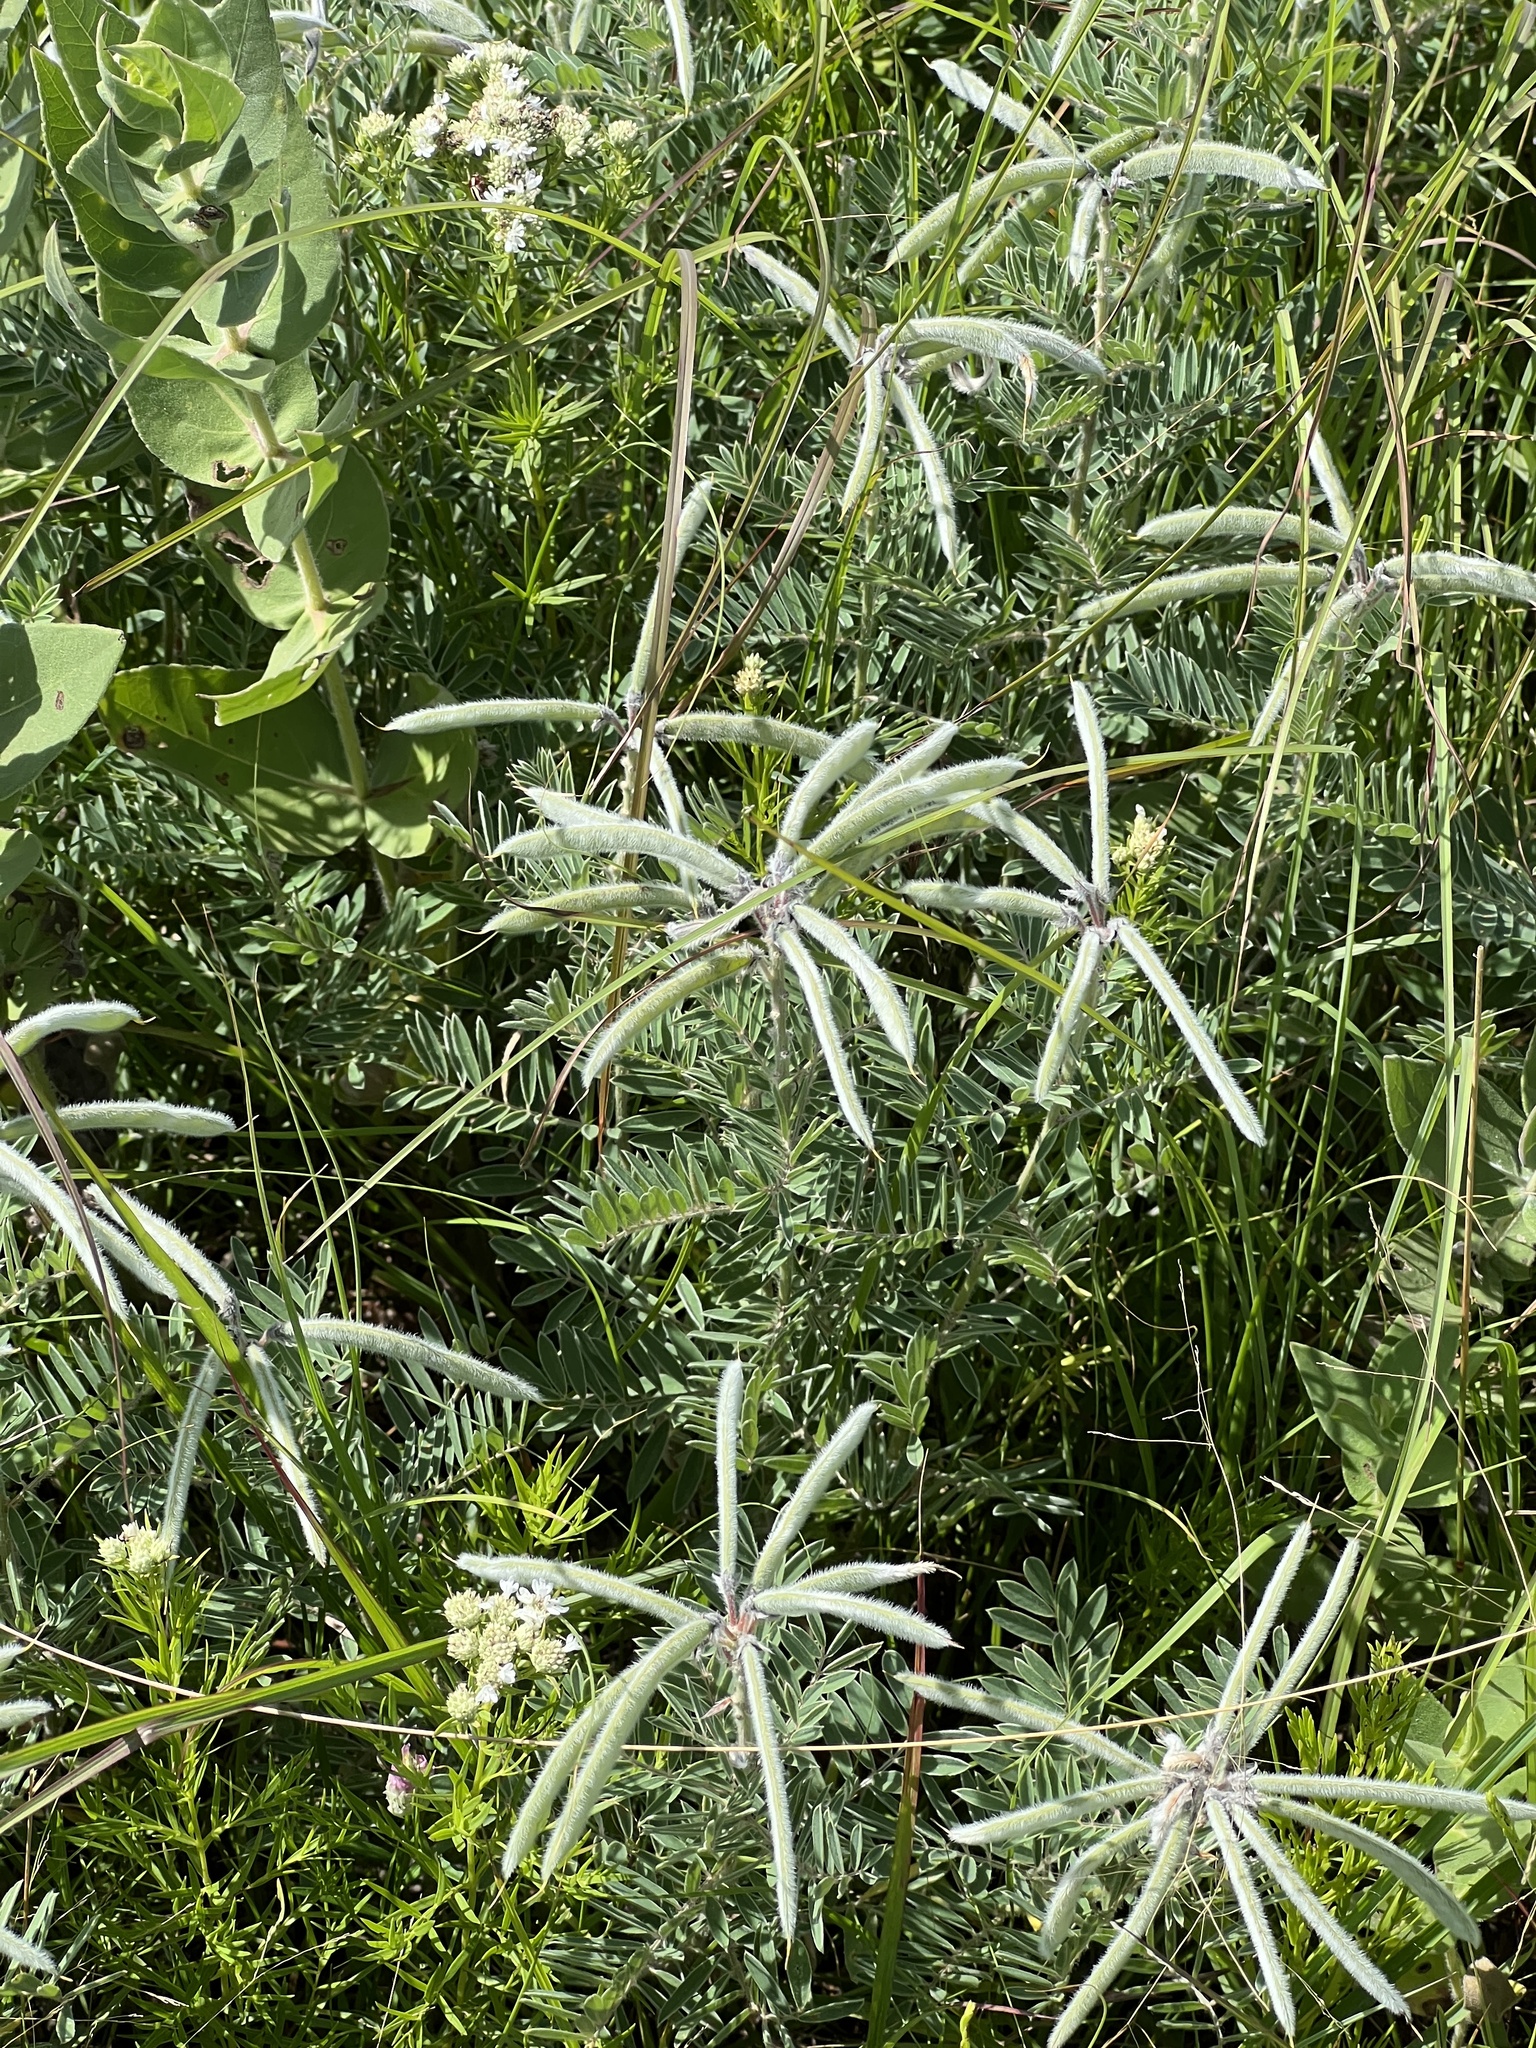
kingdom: Plantae
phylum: Tracheophyta
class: Magnoliopsida
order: Fabales
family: Fabaceae
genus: Tephrosia
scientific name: Tephrosia virginiana
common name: Rabbit-pea
